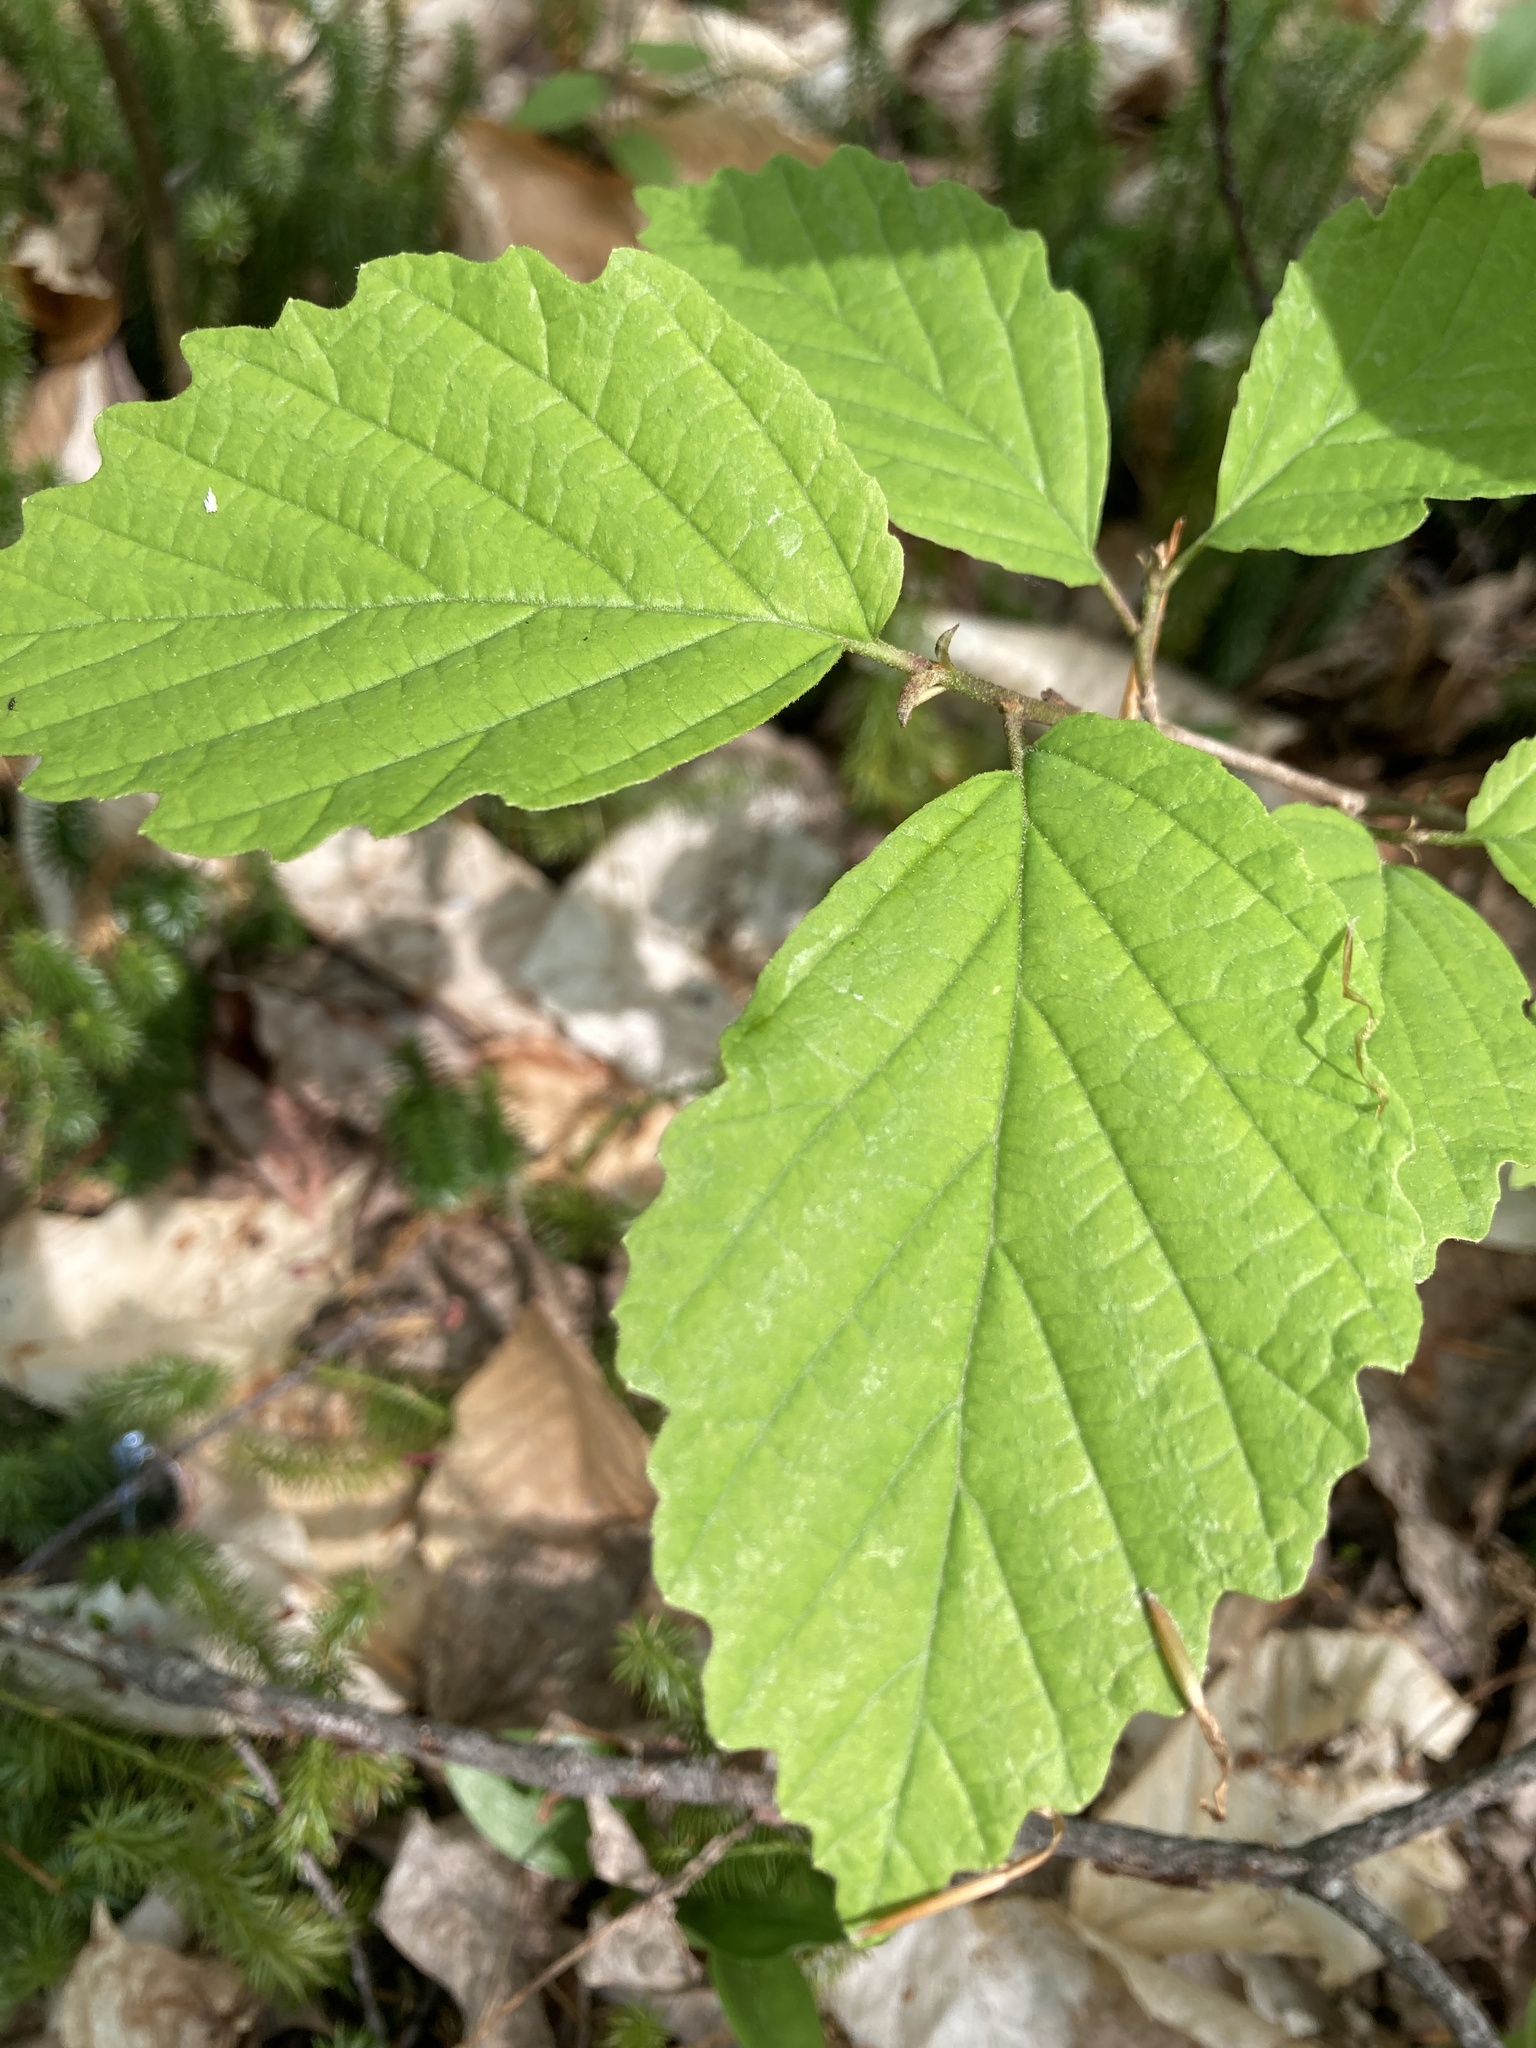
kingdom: Plantae
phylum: Tracheophyta
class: Magnoliopsida
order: Saxifragales
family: Hamamelidaceae
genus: Hamamelis
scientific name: Hamamelis virginiana
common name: Witch-hazel
